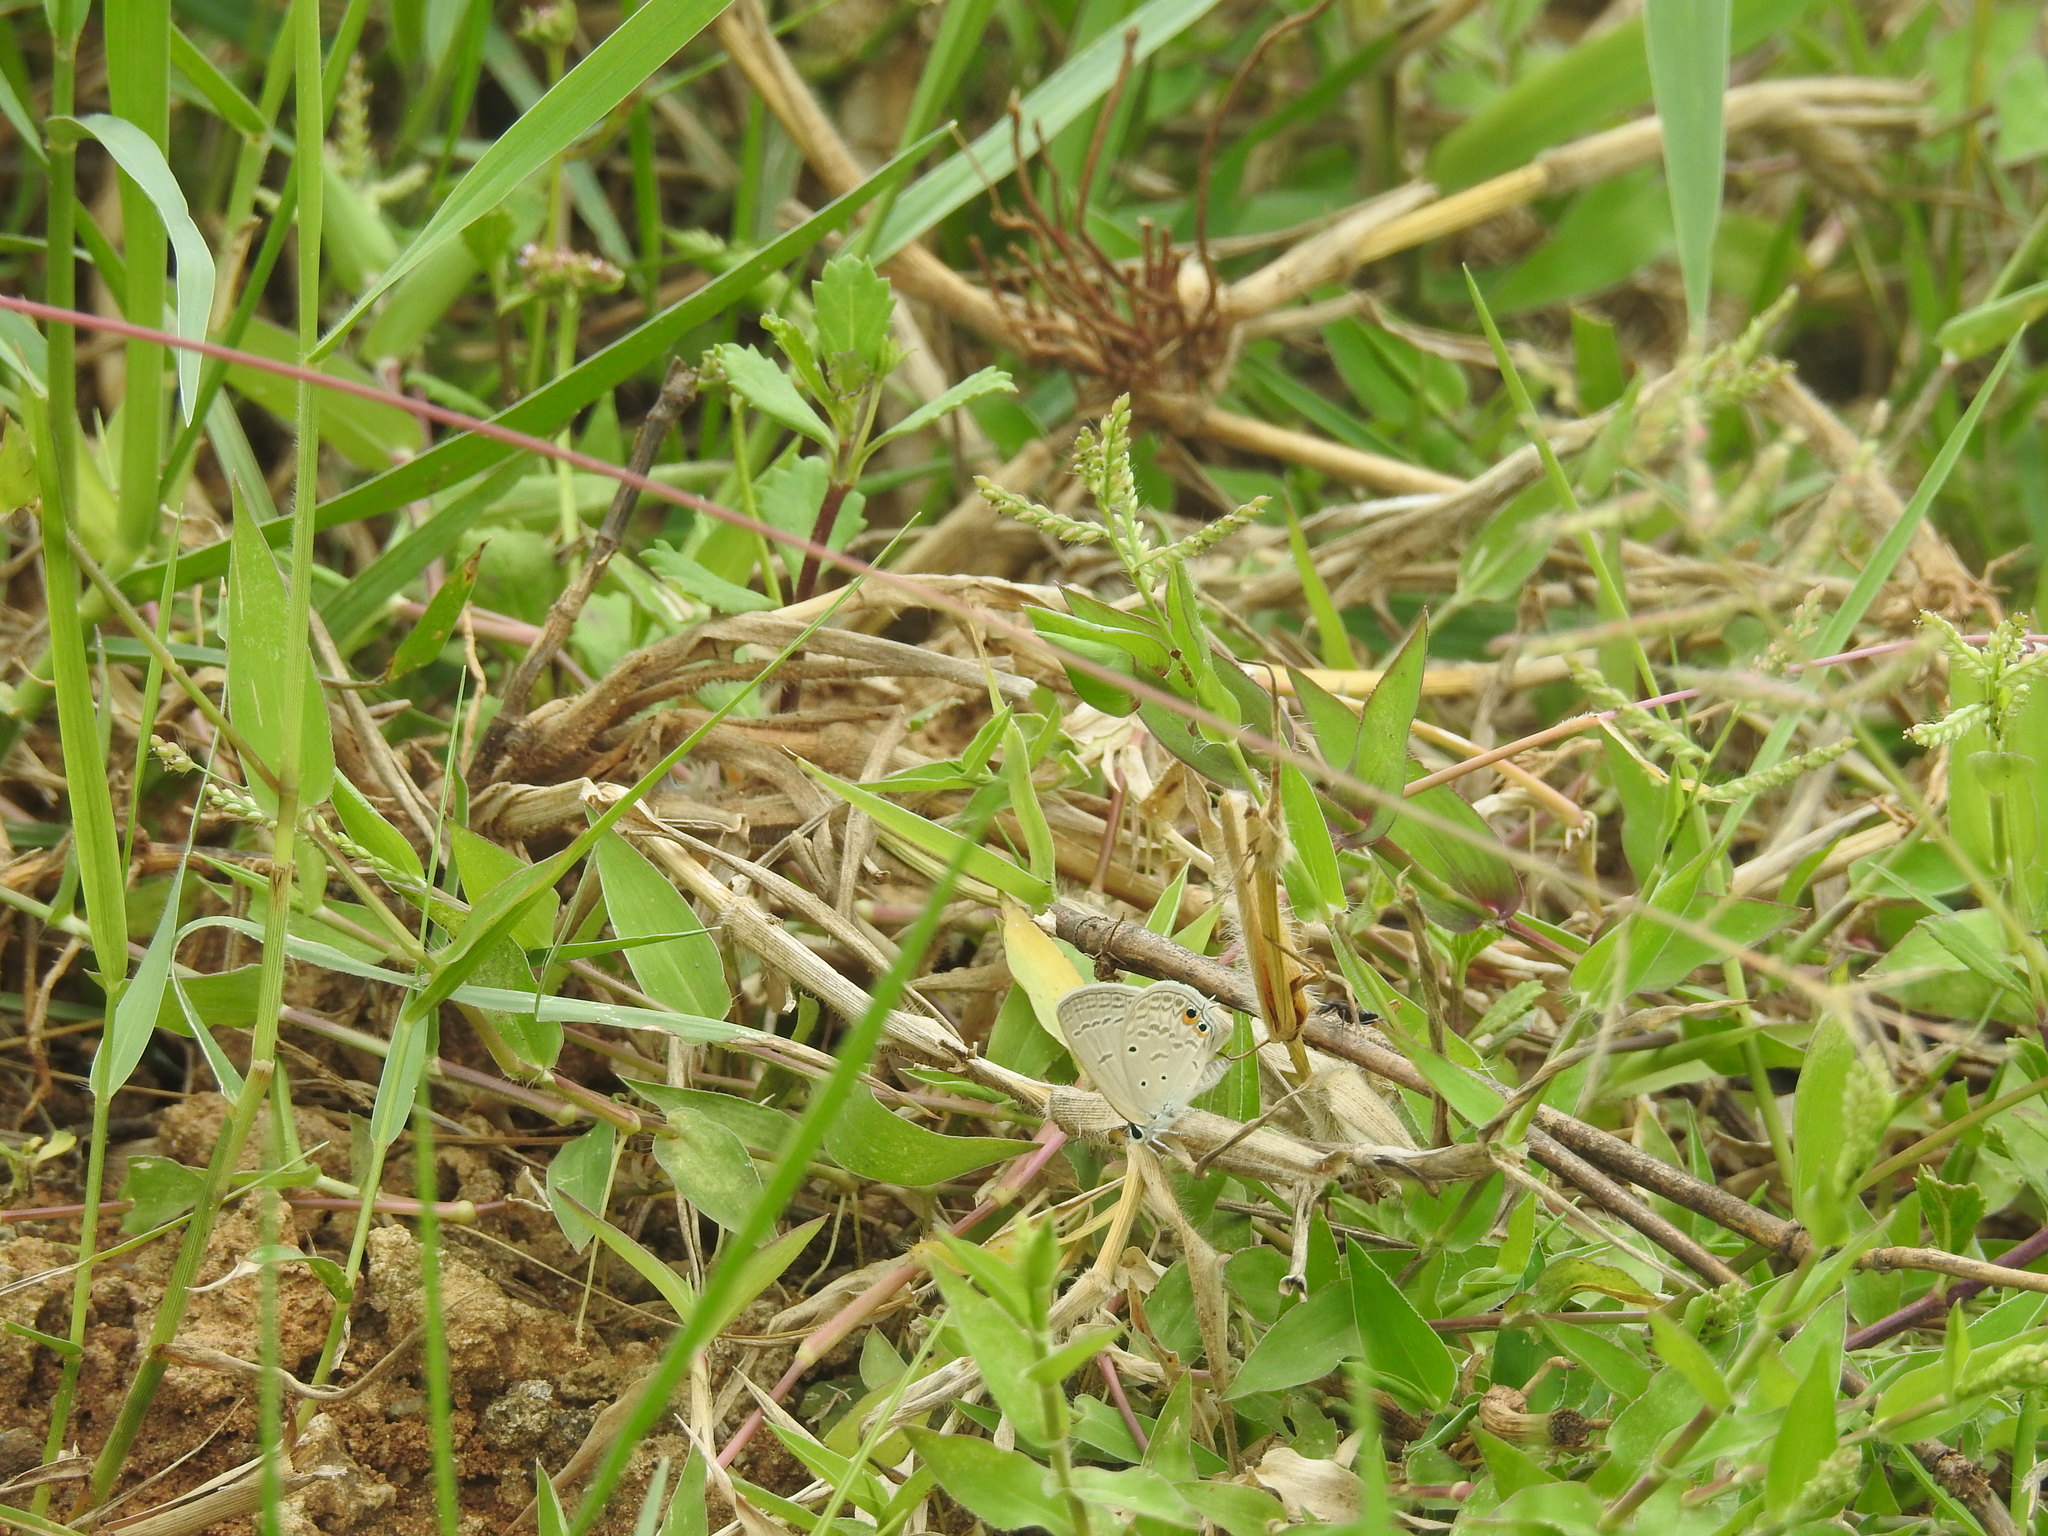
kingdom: Animalia
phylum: Arthropoda
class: Insecta
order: Lepidoptera
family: Lycaenidae
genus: Euchrysops
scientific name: Euchrysops cnejus
